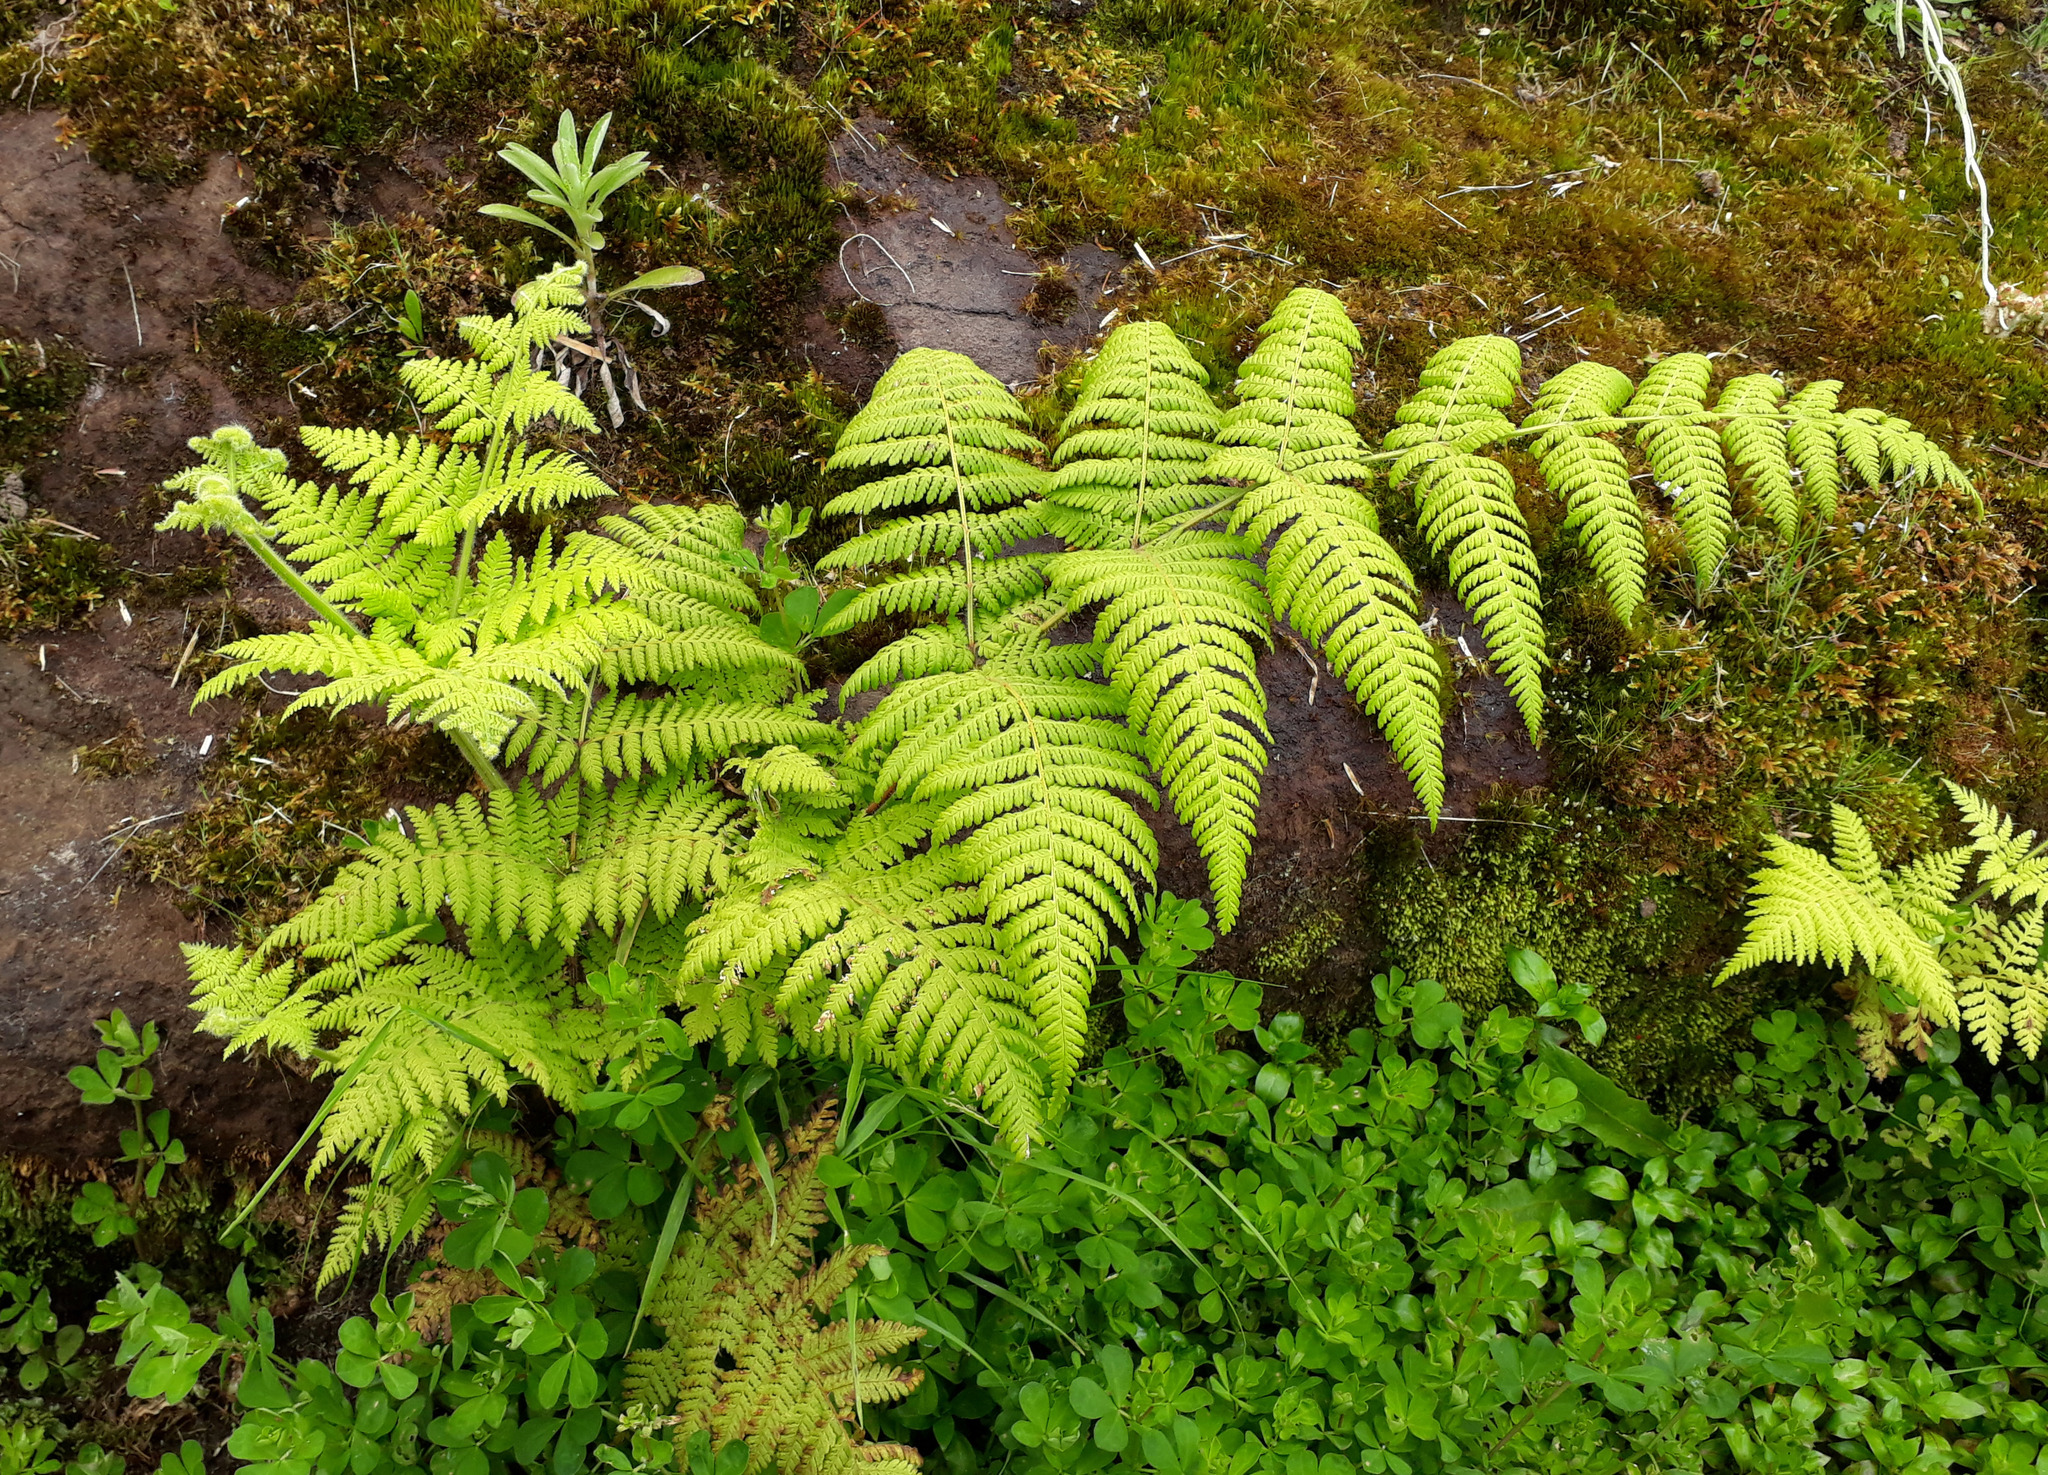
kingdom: Plantae
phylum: Tracheophyta
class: Polypodiopsida
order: Polypodiales
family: Dennstaedtiaceae
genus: Hypolepis
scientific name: Hypolepis dicksonioides
